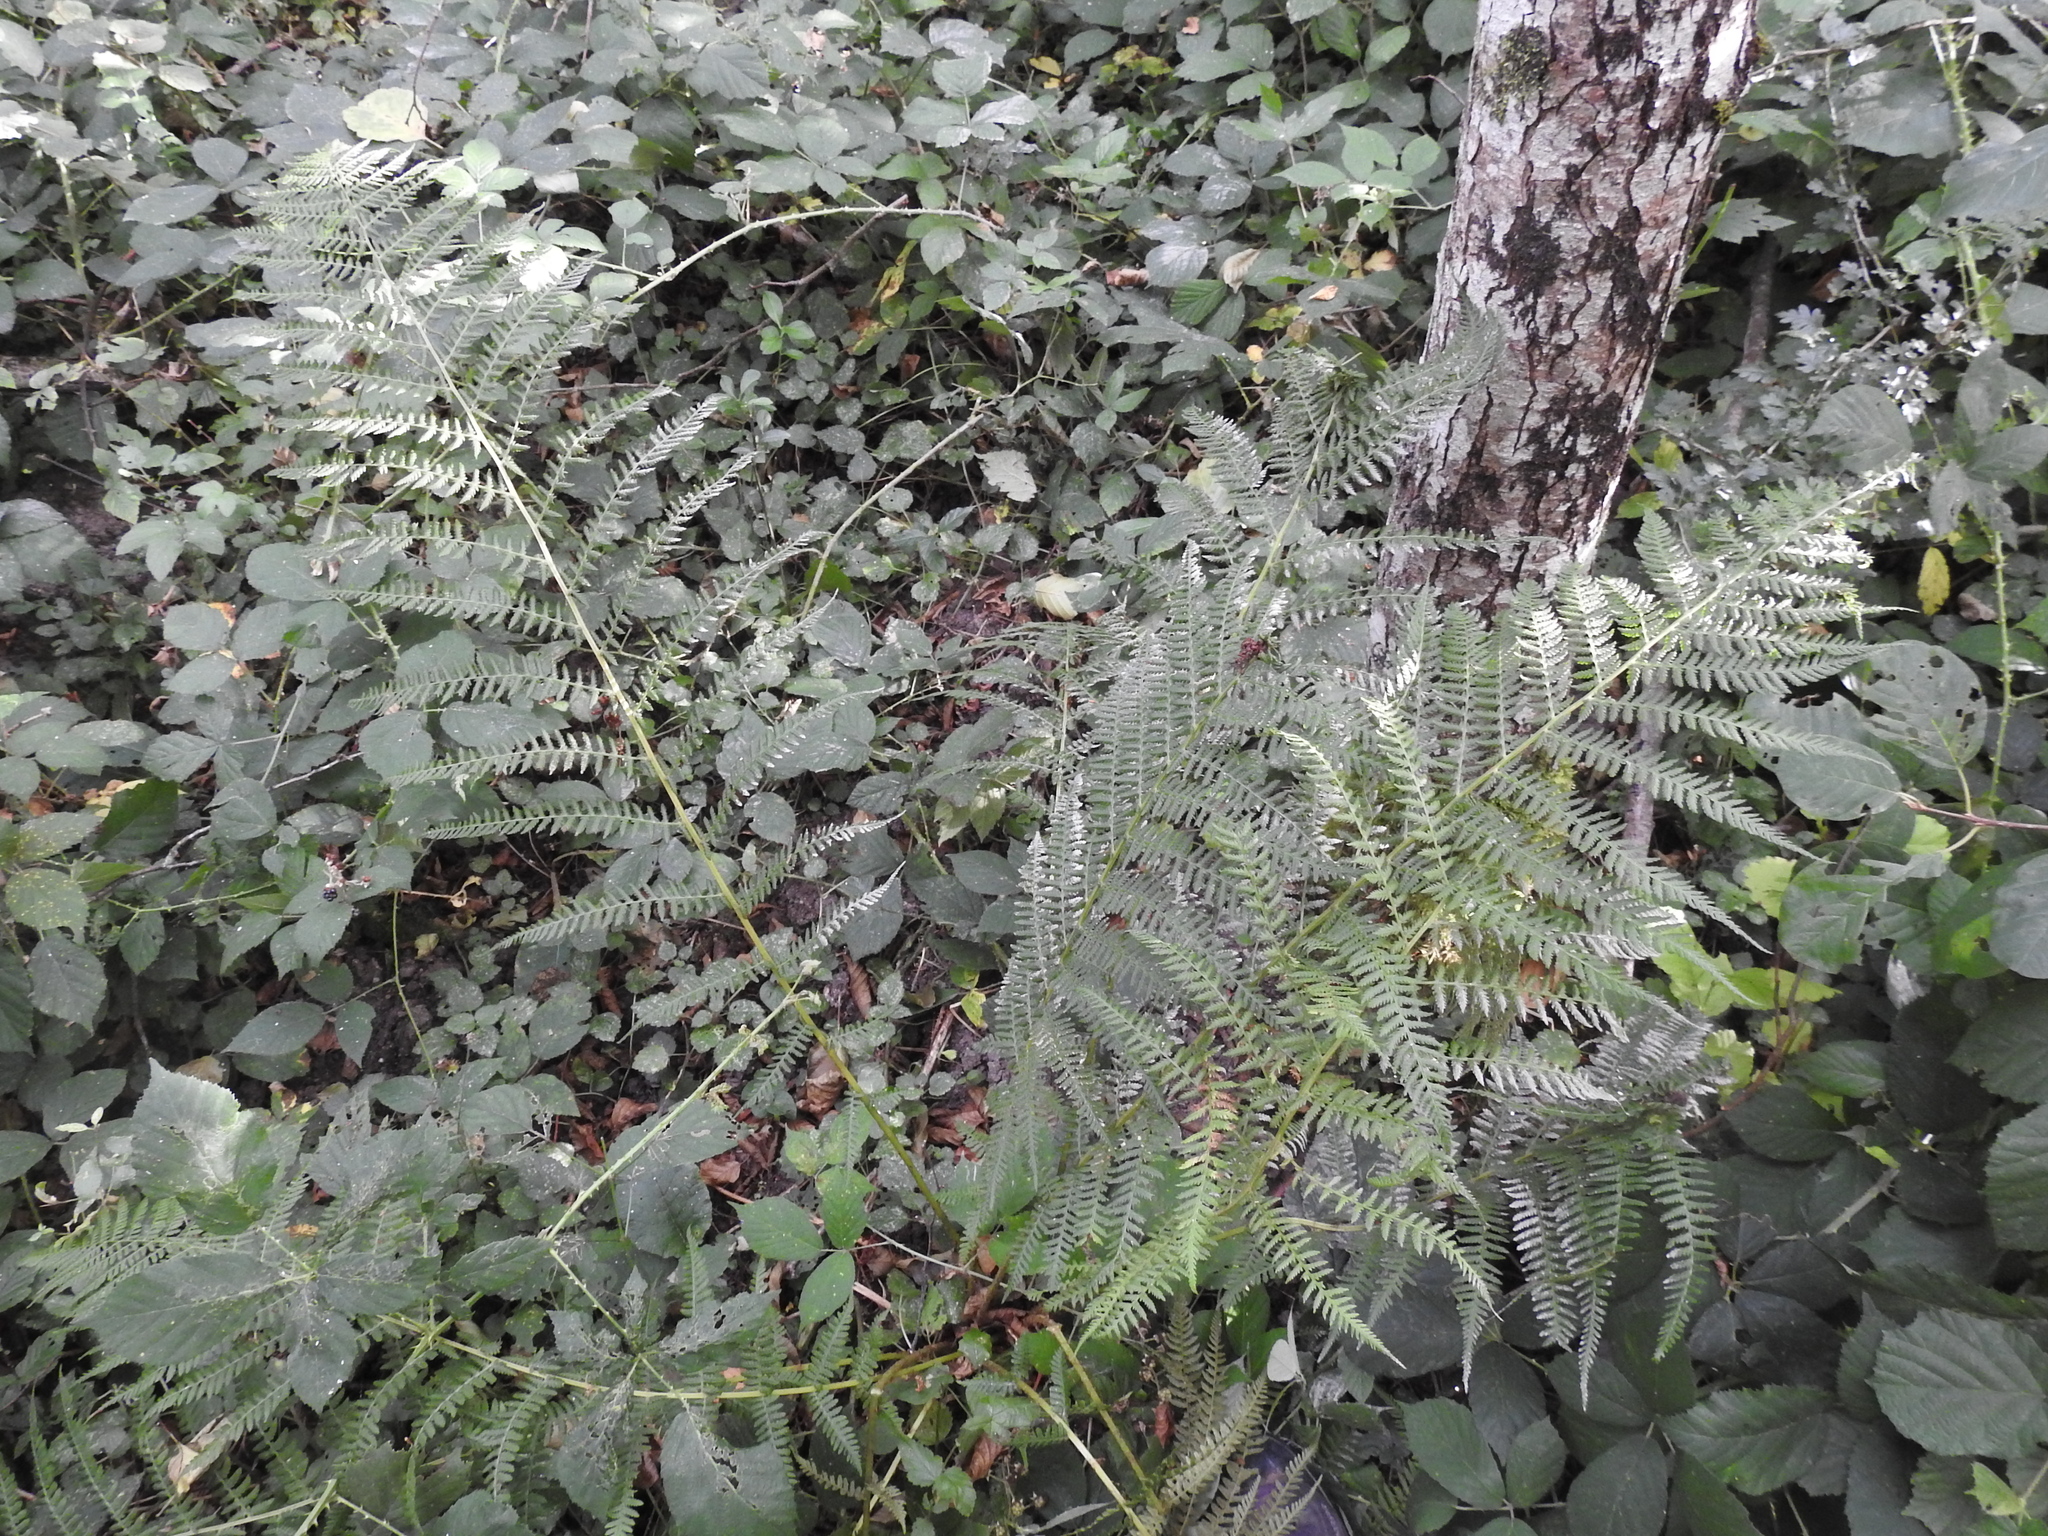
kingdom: Plantae
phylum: Tracheophyta
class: Polypodiopsida
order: Polypodiales
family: Athyriaceae
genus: Athyrium
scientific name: Athyrium filix-femina
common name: Lady fern
